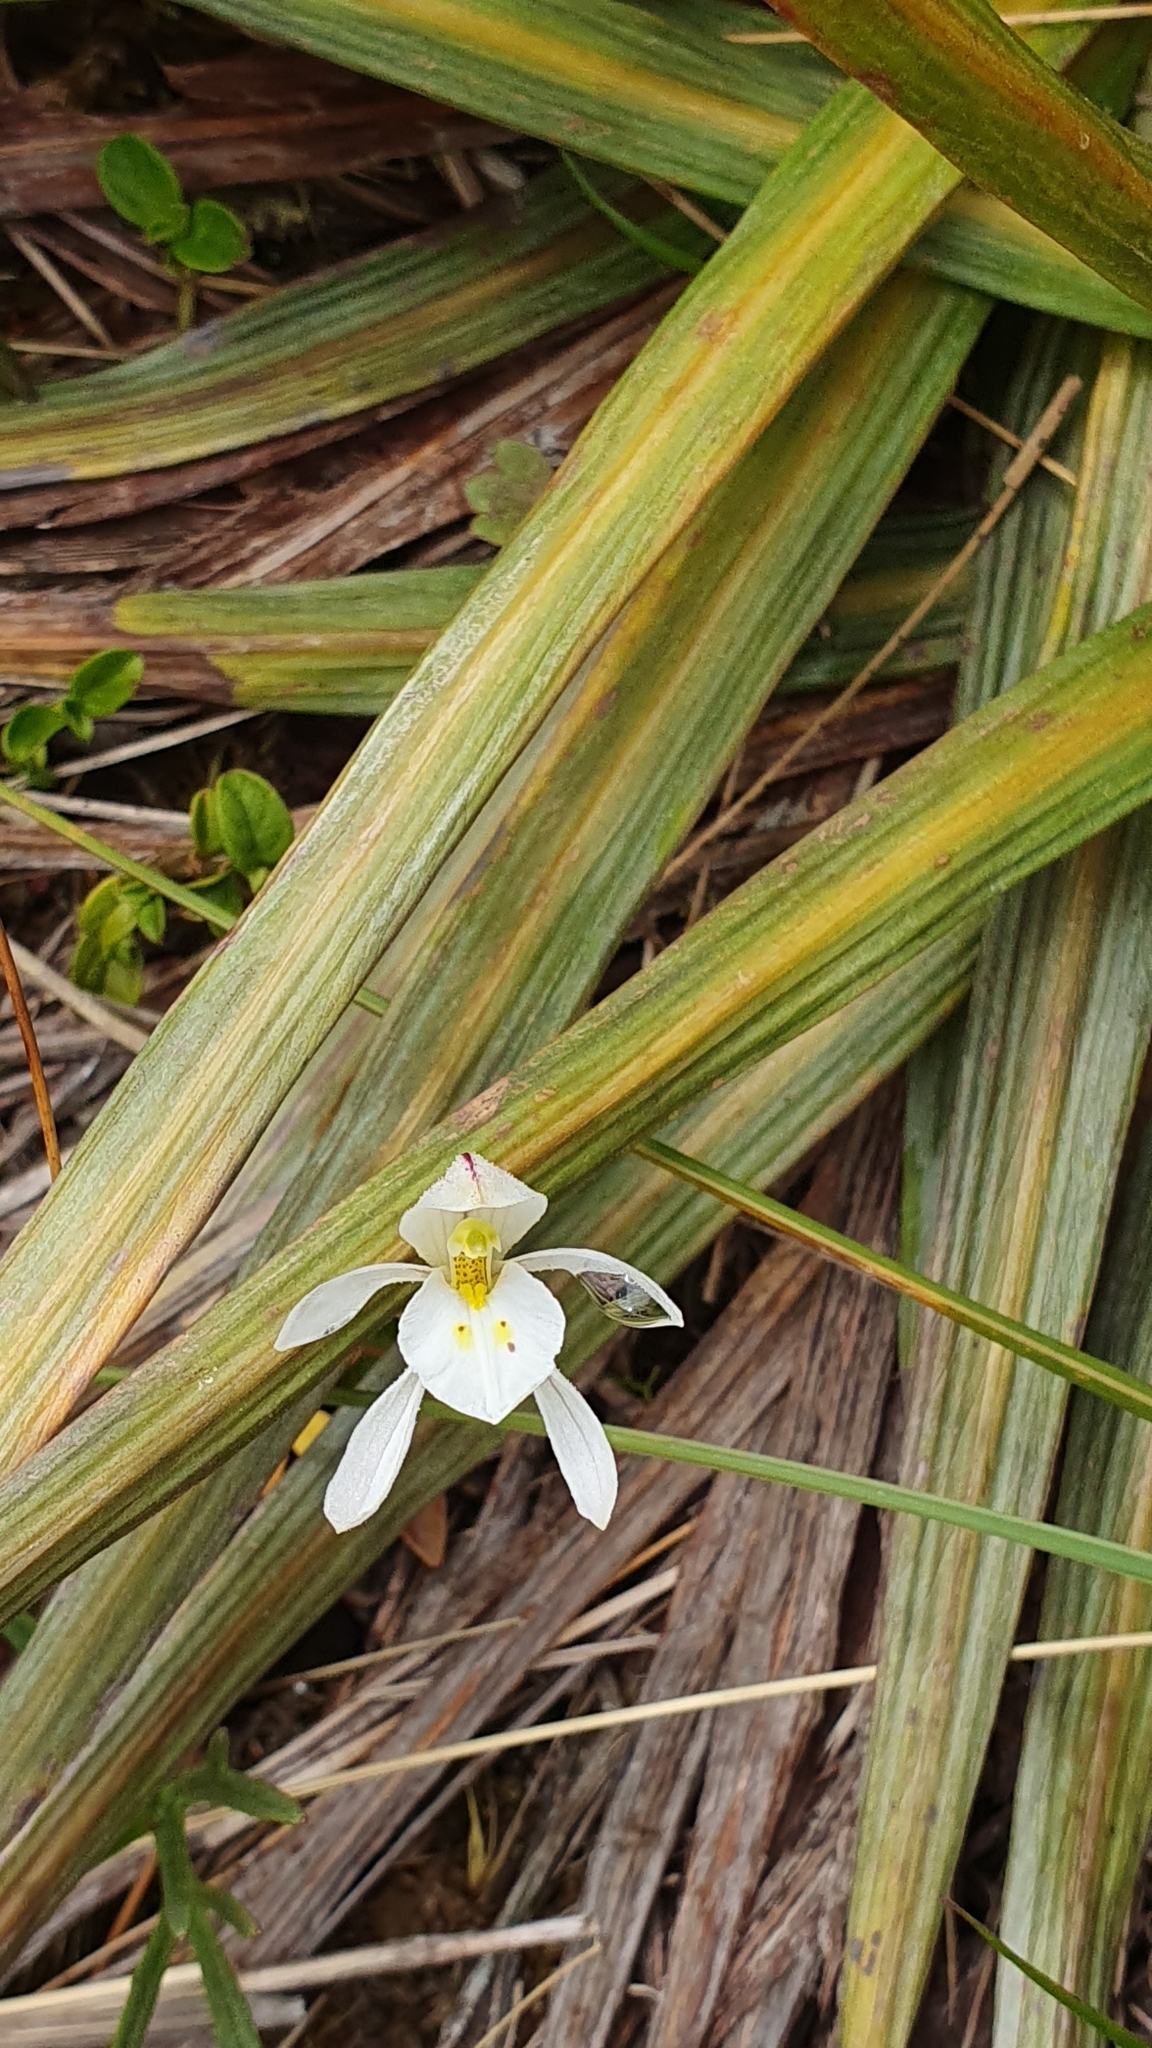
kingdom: Plantae
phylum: Tracheophyta
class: Liliopsida
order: Asparagales
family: Orchidaceae
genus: Aporostylis
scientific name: Aporostylis bifolia
